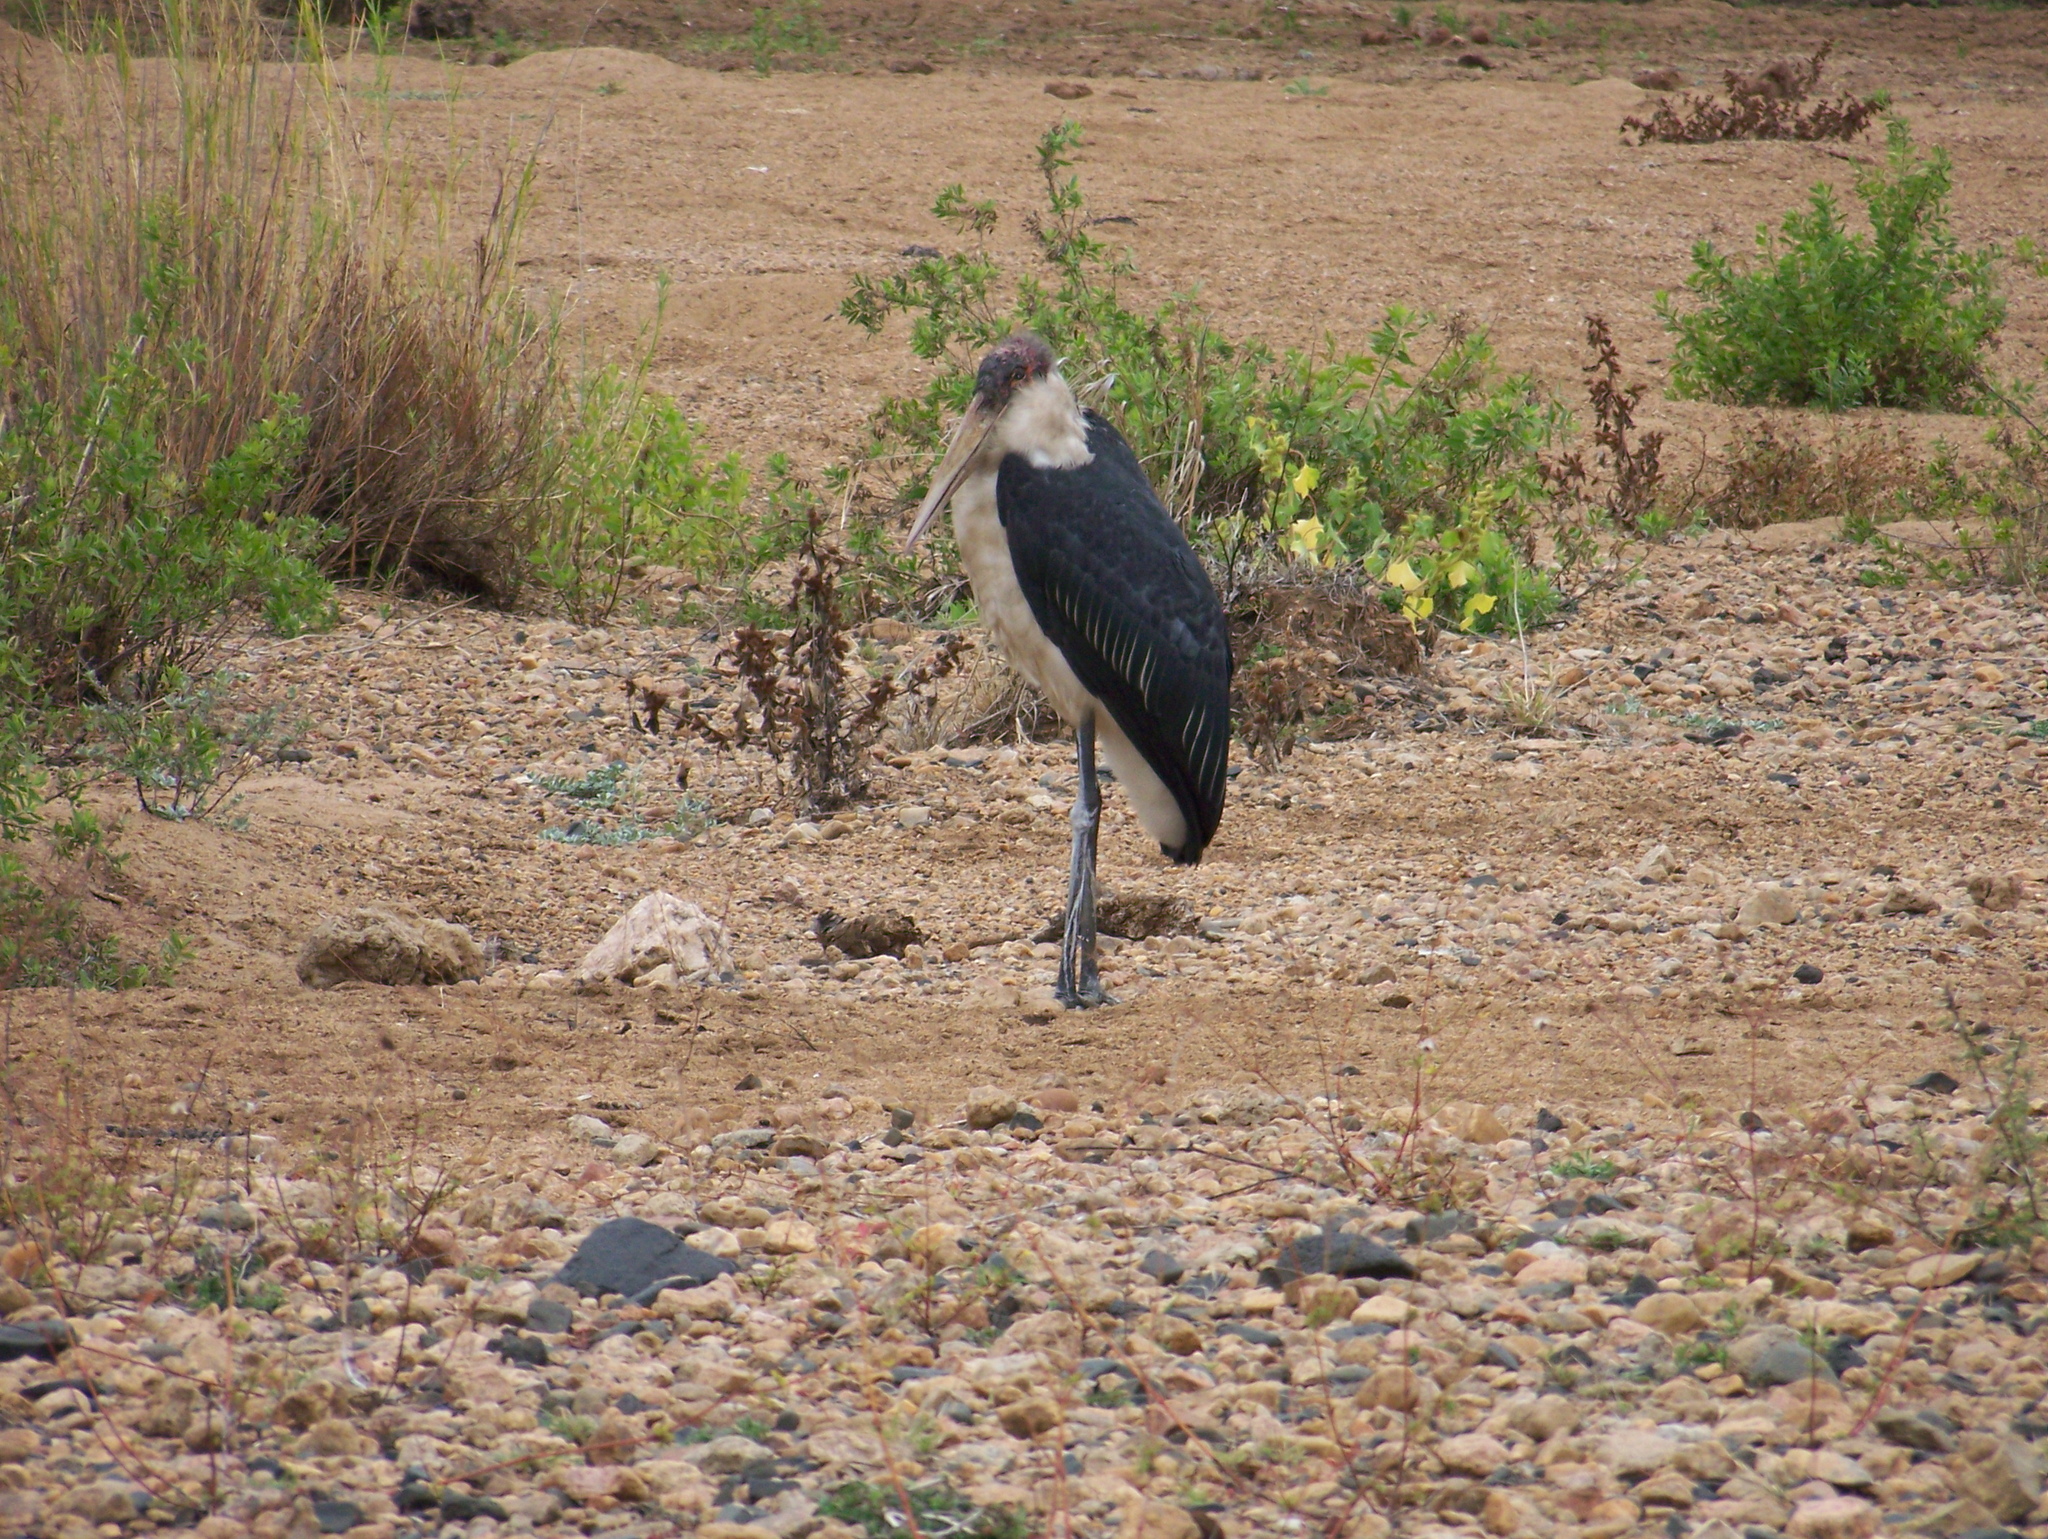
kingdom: Animalia
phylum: Chordata
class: Aves
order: Ciconiiformes
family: Ciconiidae
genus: Leptoptilos
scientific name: Leptoptilos crumenifer
